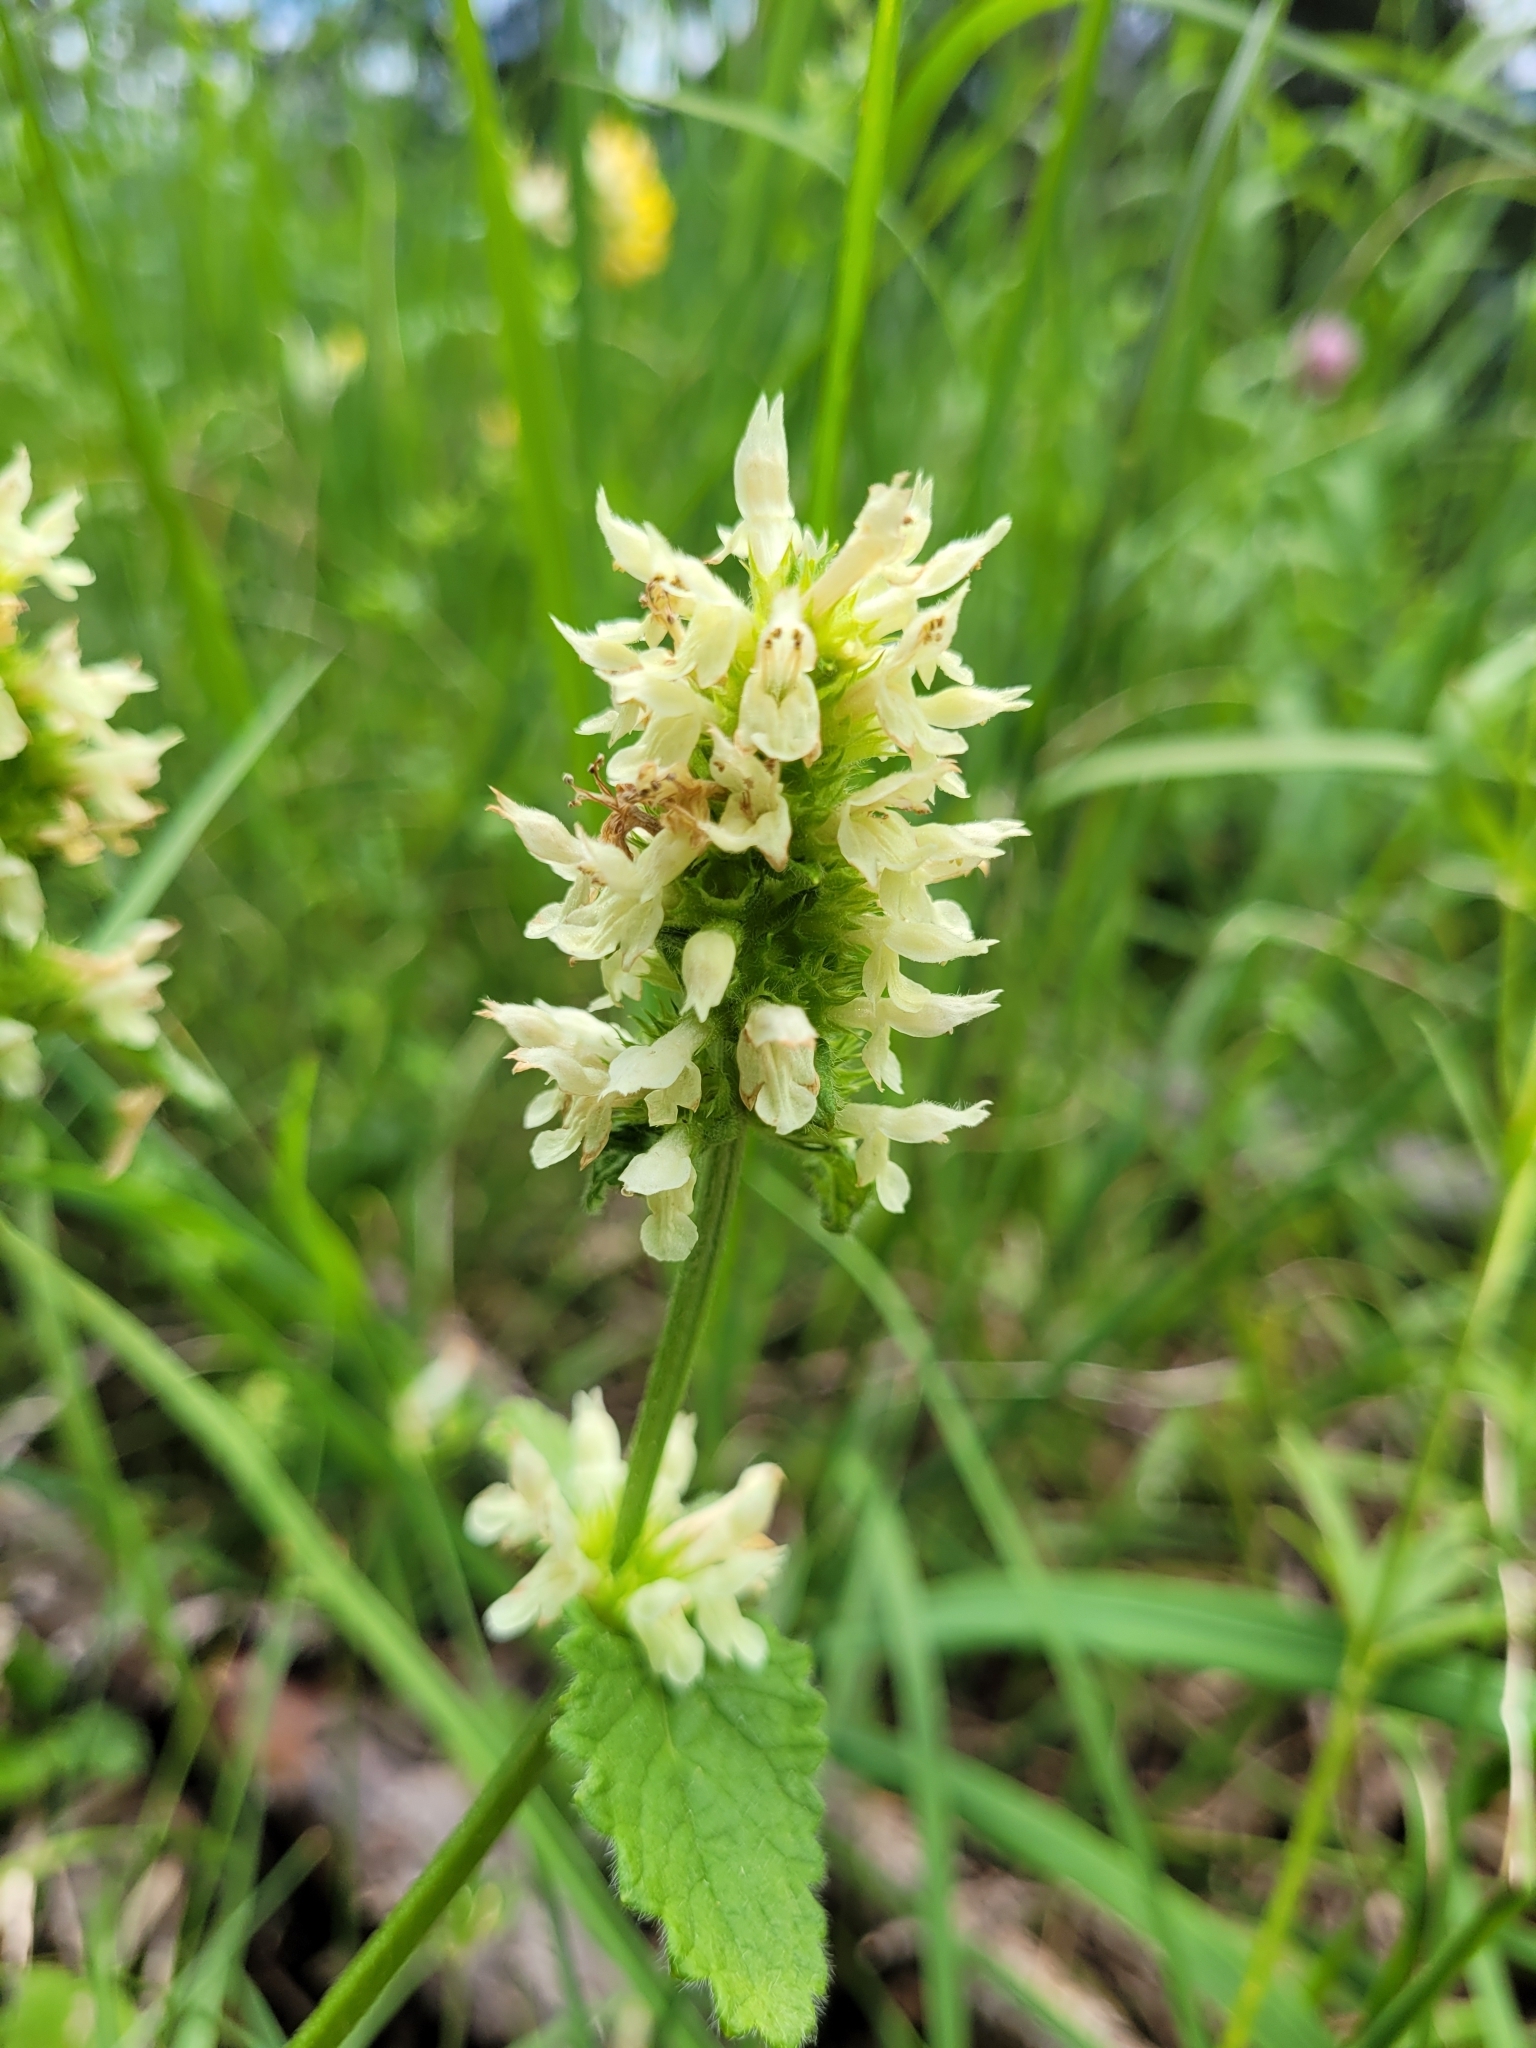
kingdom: Plantae
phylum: Tracheophyta
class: Magnoliopsida
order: Lamiales
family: Lamiaceae
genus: Betonica
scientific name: Betonica alopecuros
